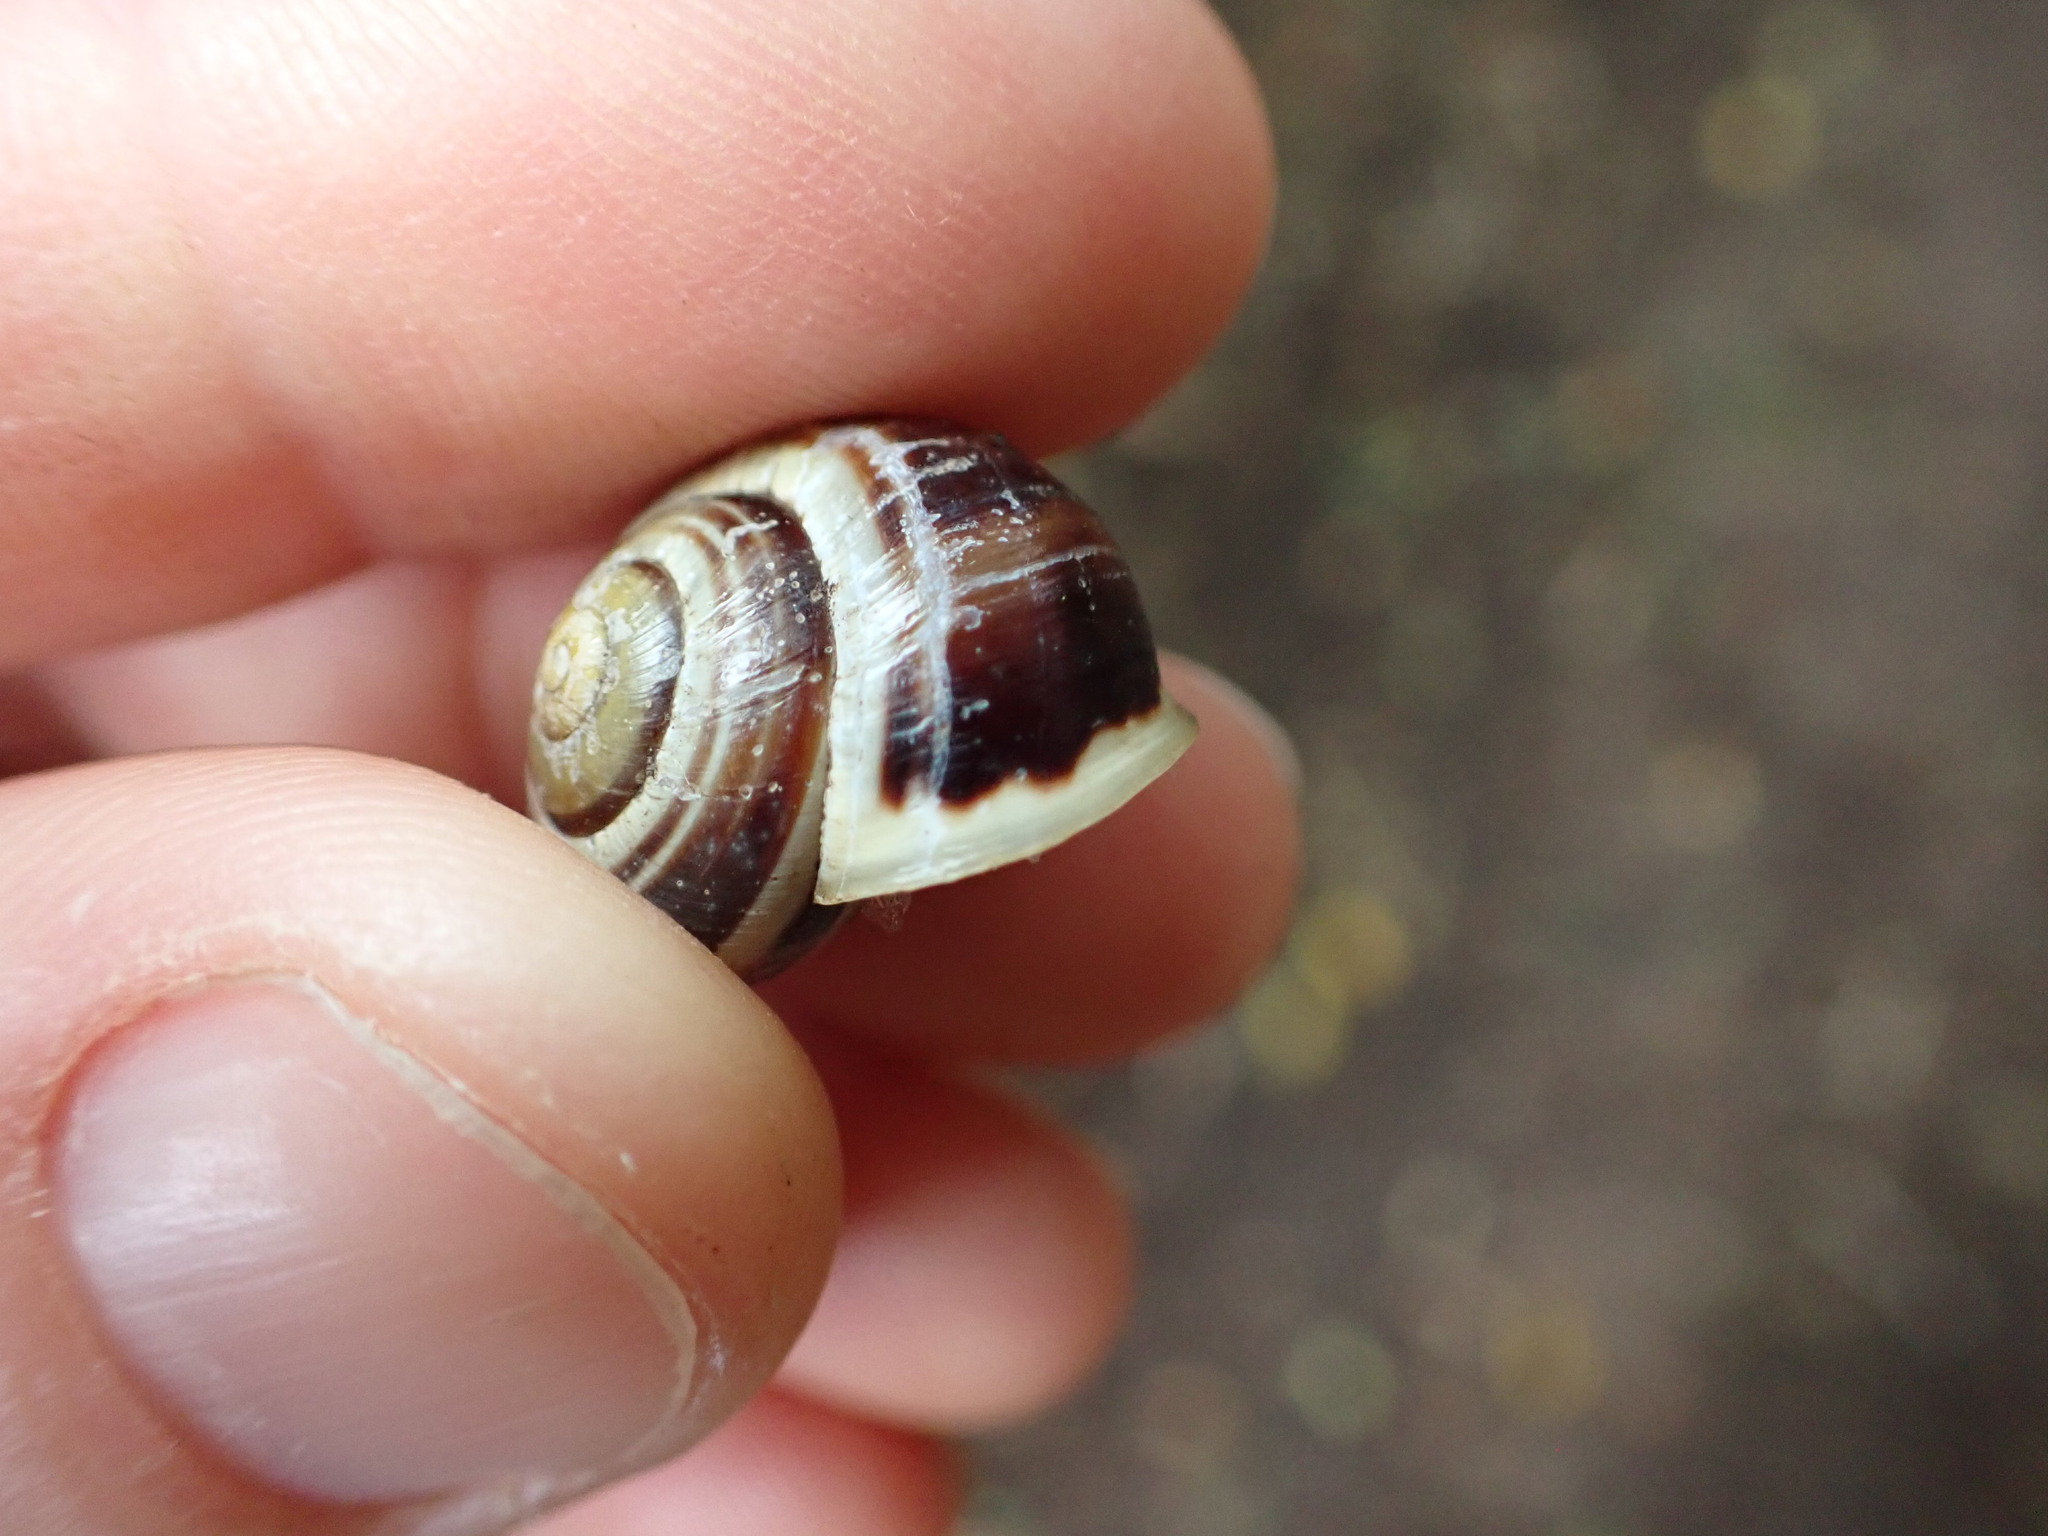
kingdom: Animalia
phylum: Mollusca
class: Gastropoda
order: Stylommatophora
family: Helicidae
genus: Cepaea
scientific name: Cepaea hortensis
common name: White-lip gardensnail
